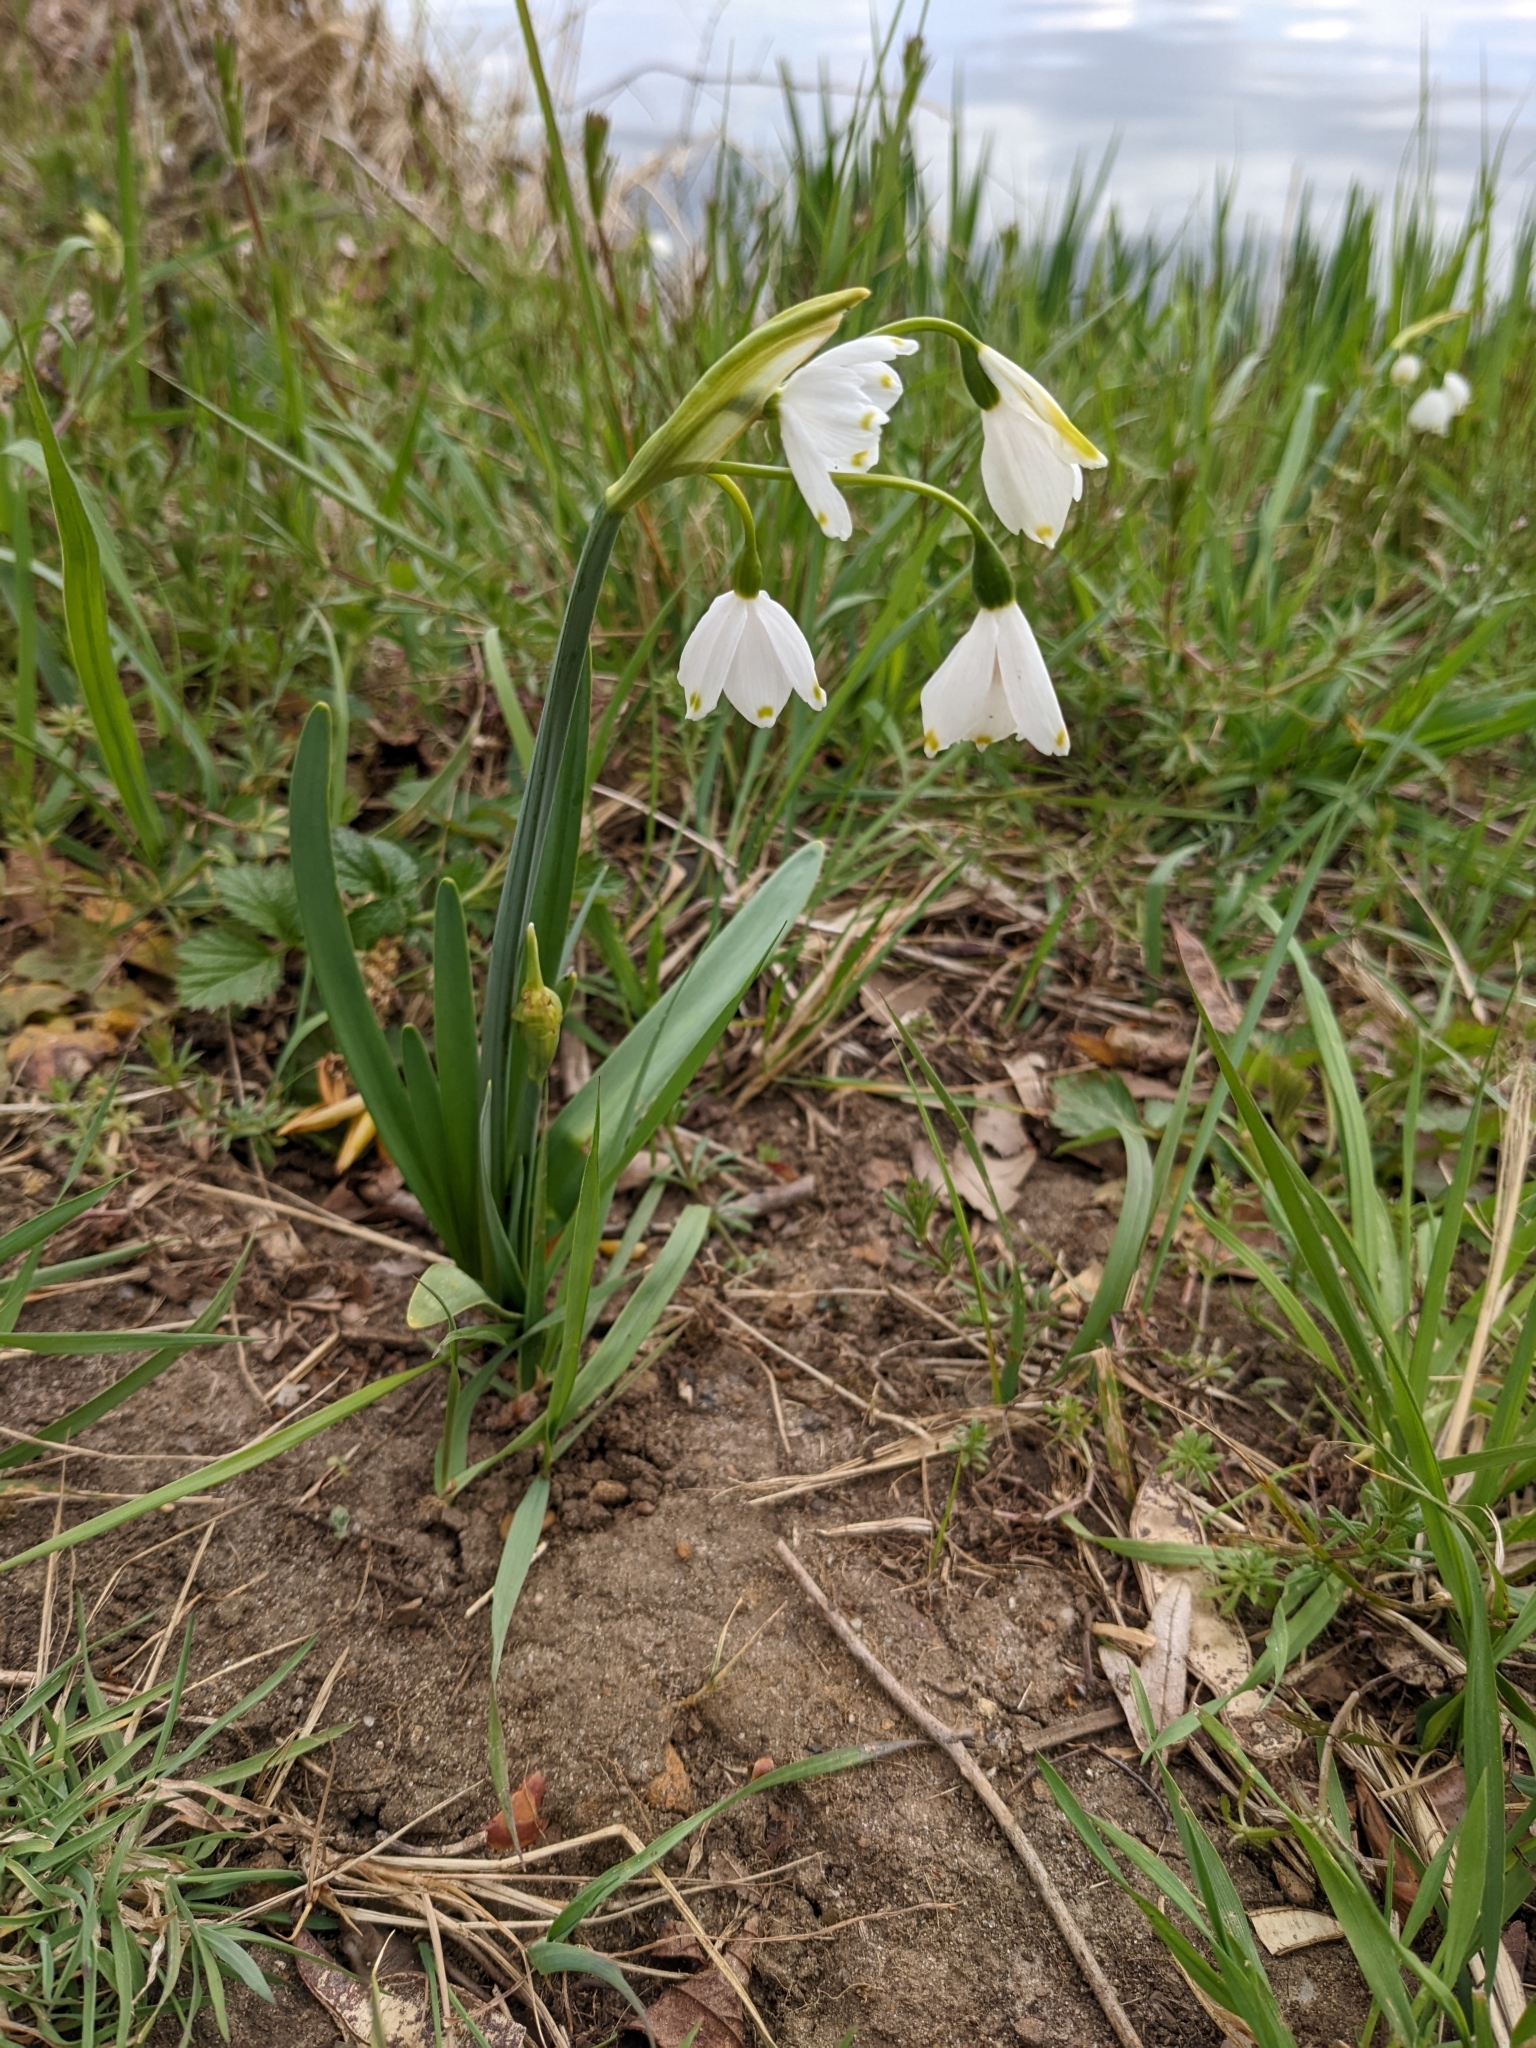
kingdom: Plantae
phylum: Tracheophyta
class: Liliopsida
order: Asparagales
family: Amaryllidaceae
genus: Leucojum
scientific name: Leucojum aestivum
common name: Summer snowflake
